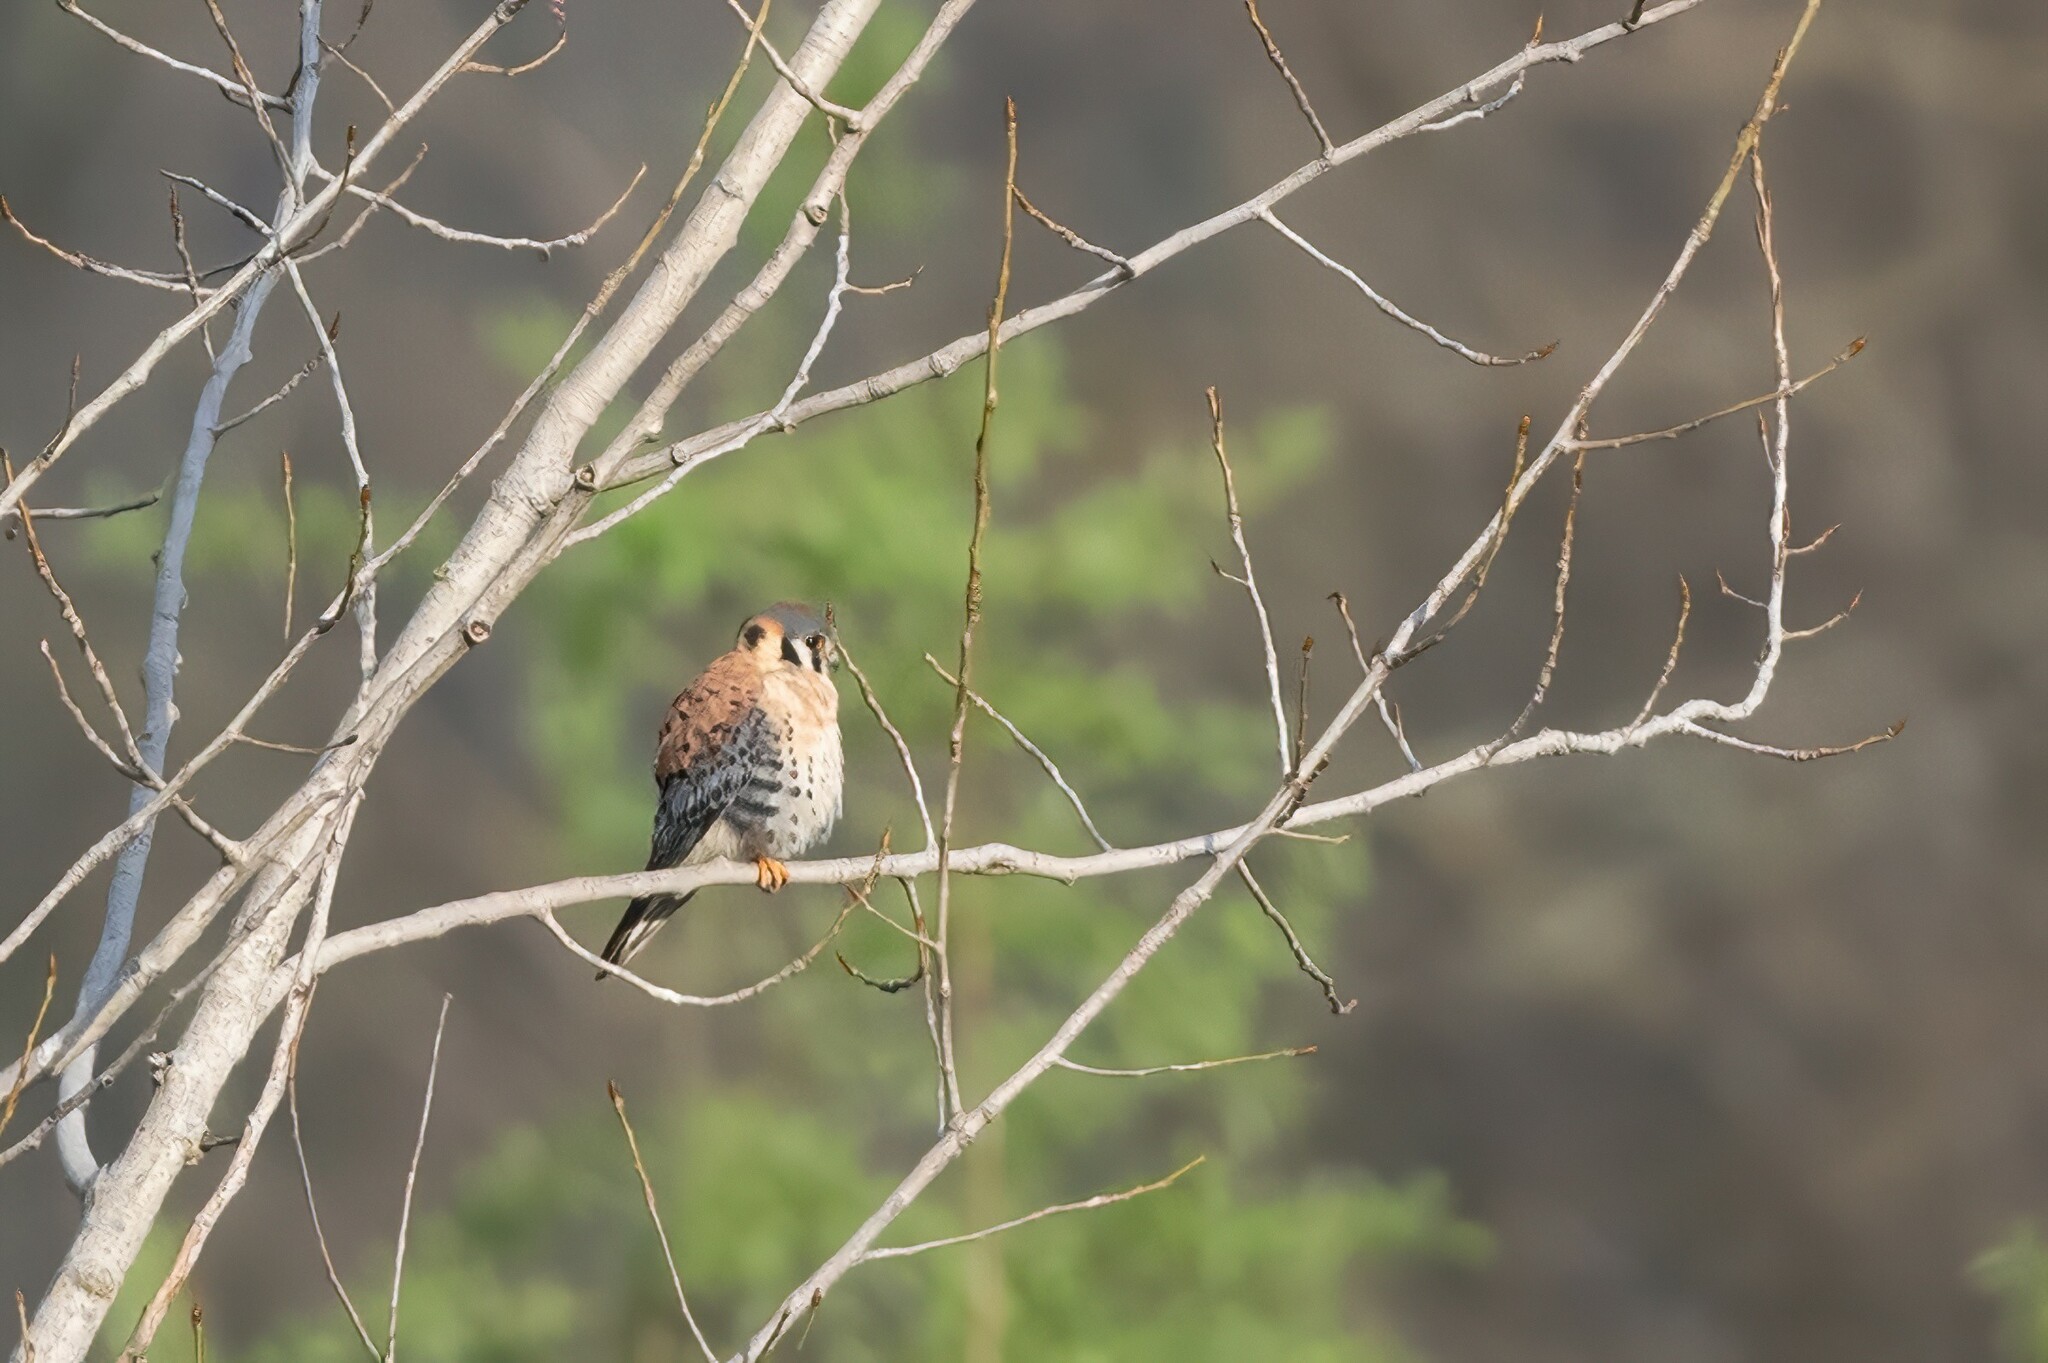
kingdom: Animalia
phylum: Chordata
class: Aves
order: Falconiformes
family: Falconidae
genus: Falco
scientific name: Falco sparverius
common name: American kestrel
